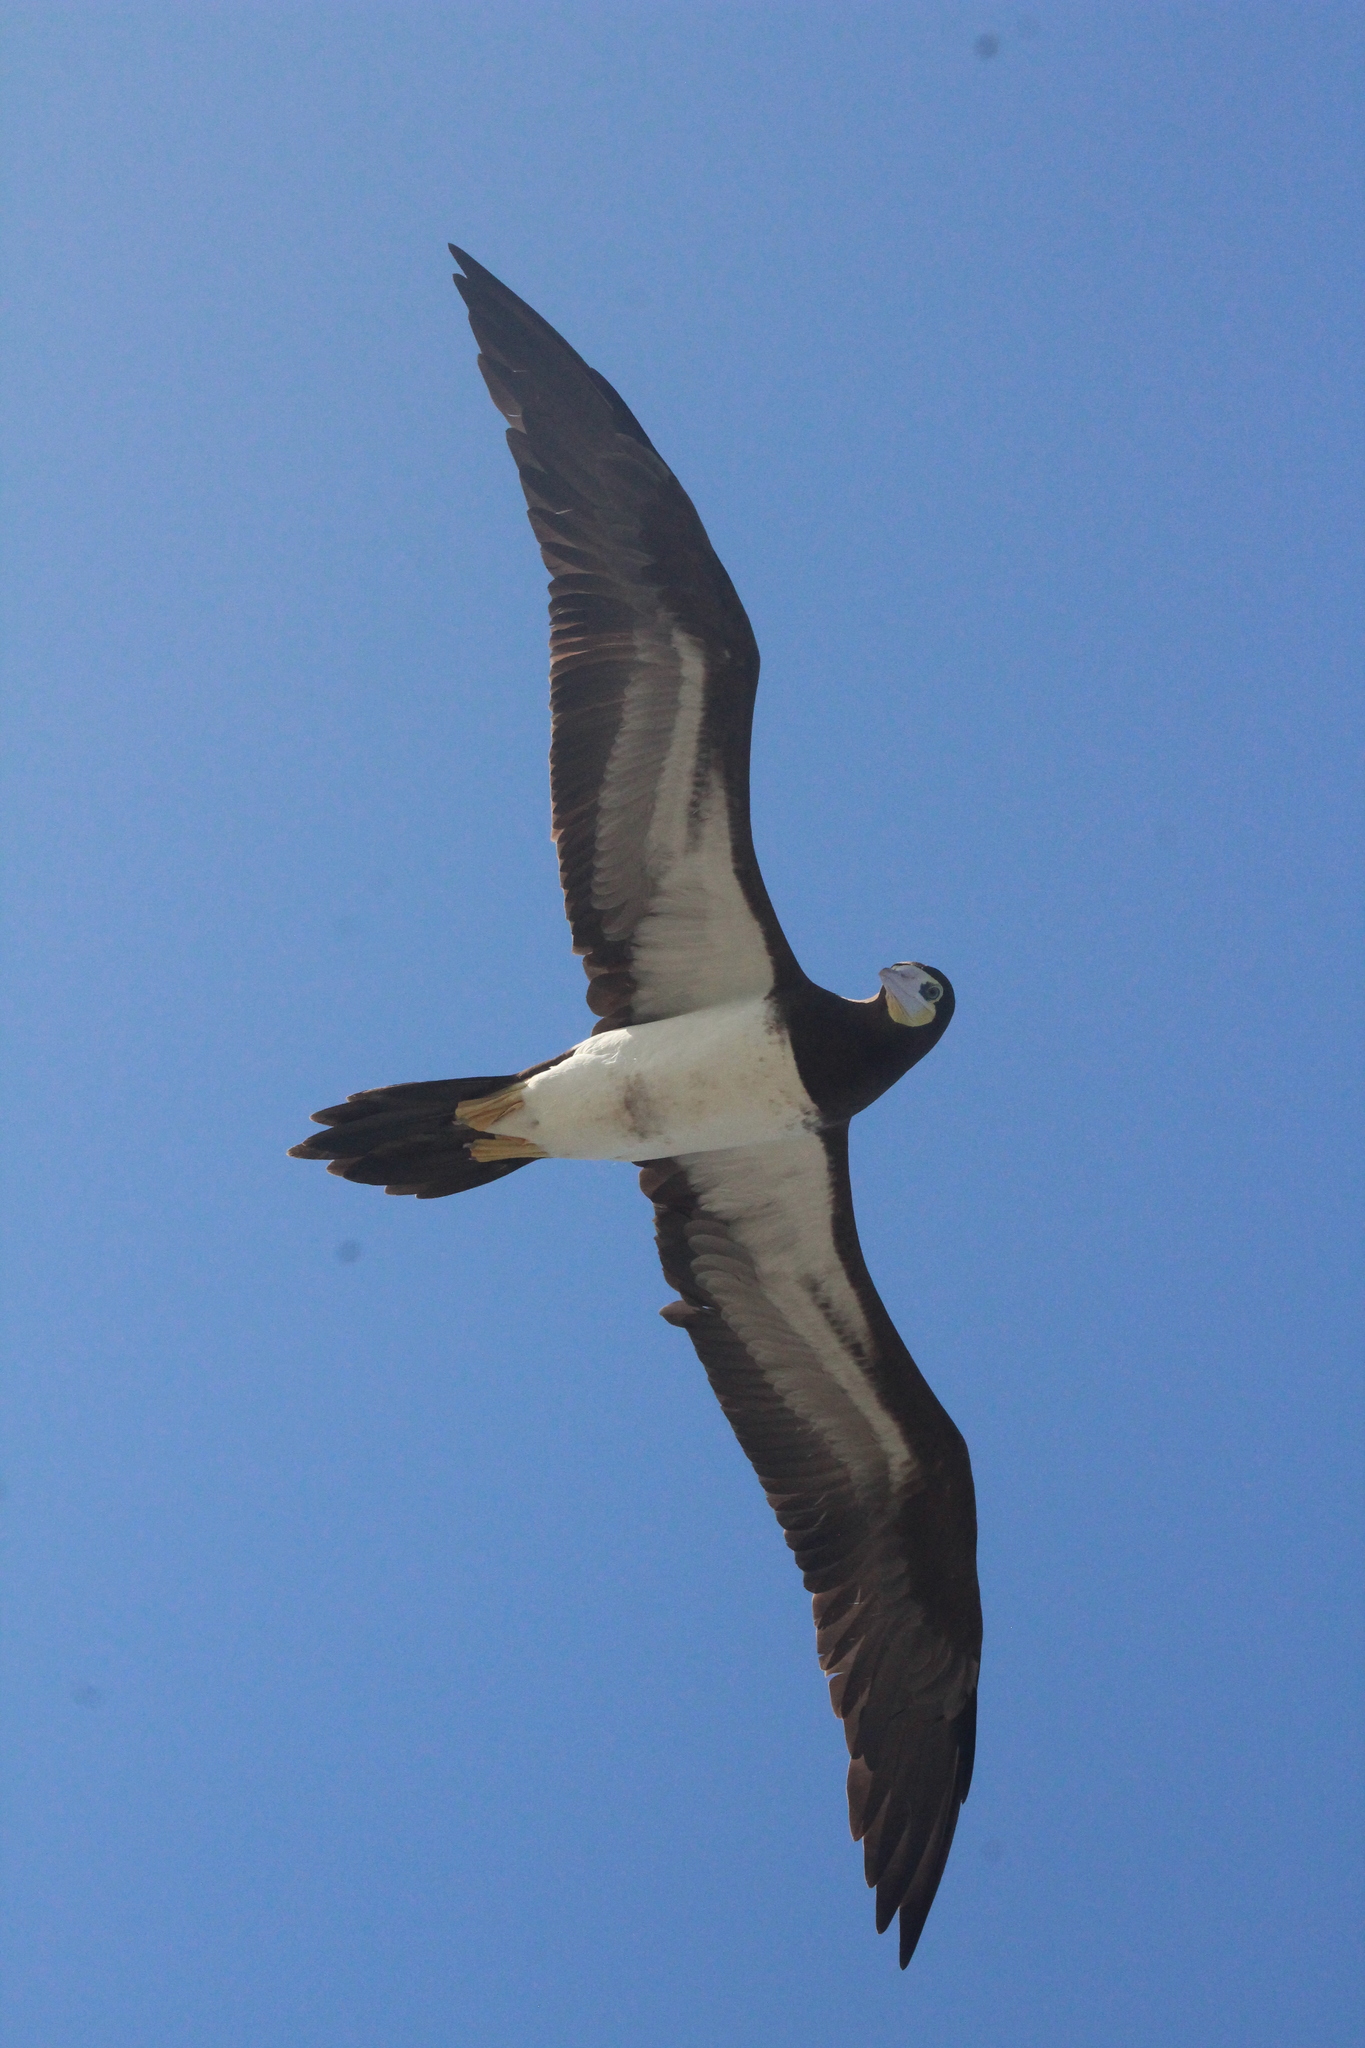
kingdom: Animalia
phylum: Chordata
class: Aves
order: Suliformes
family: Sulidae
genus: Sula
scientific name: Sula leucogaster
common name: Brown booby
